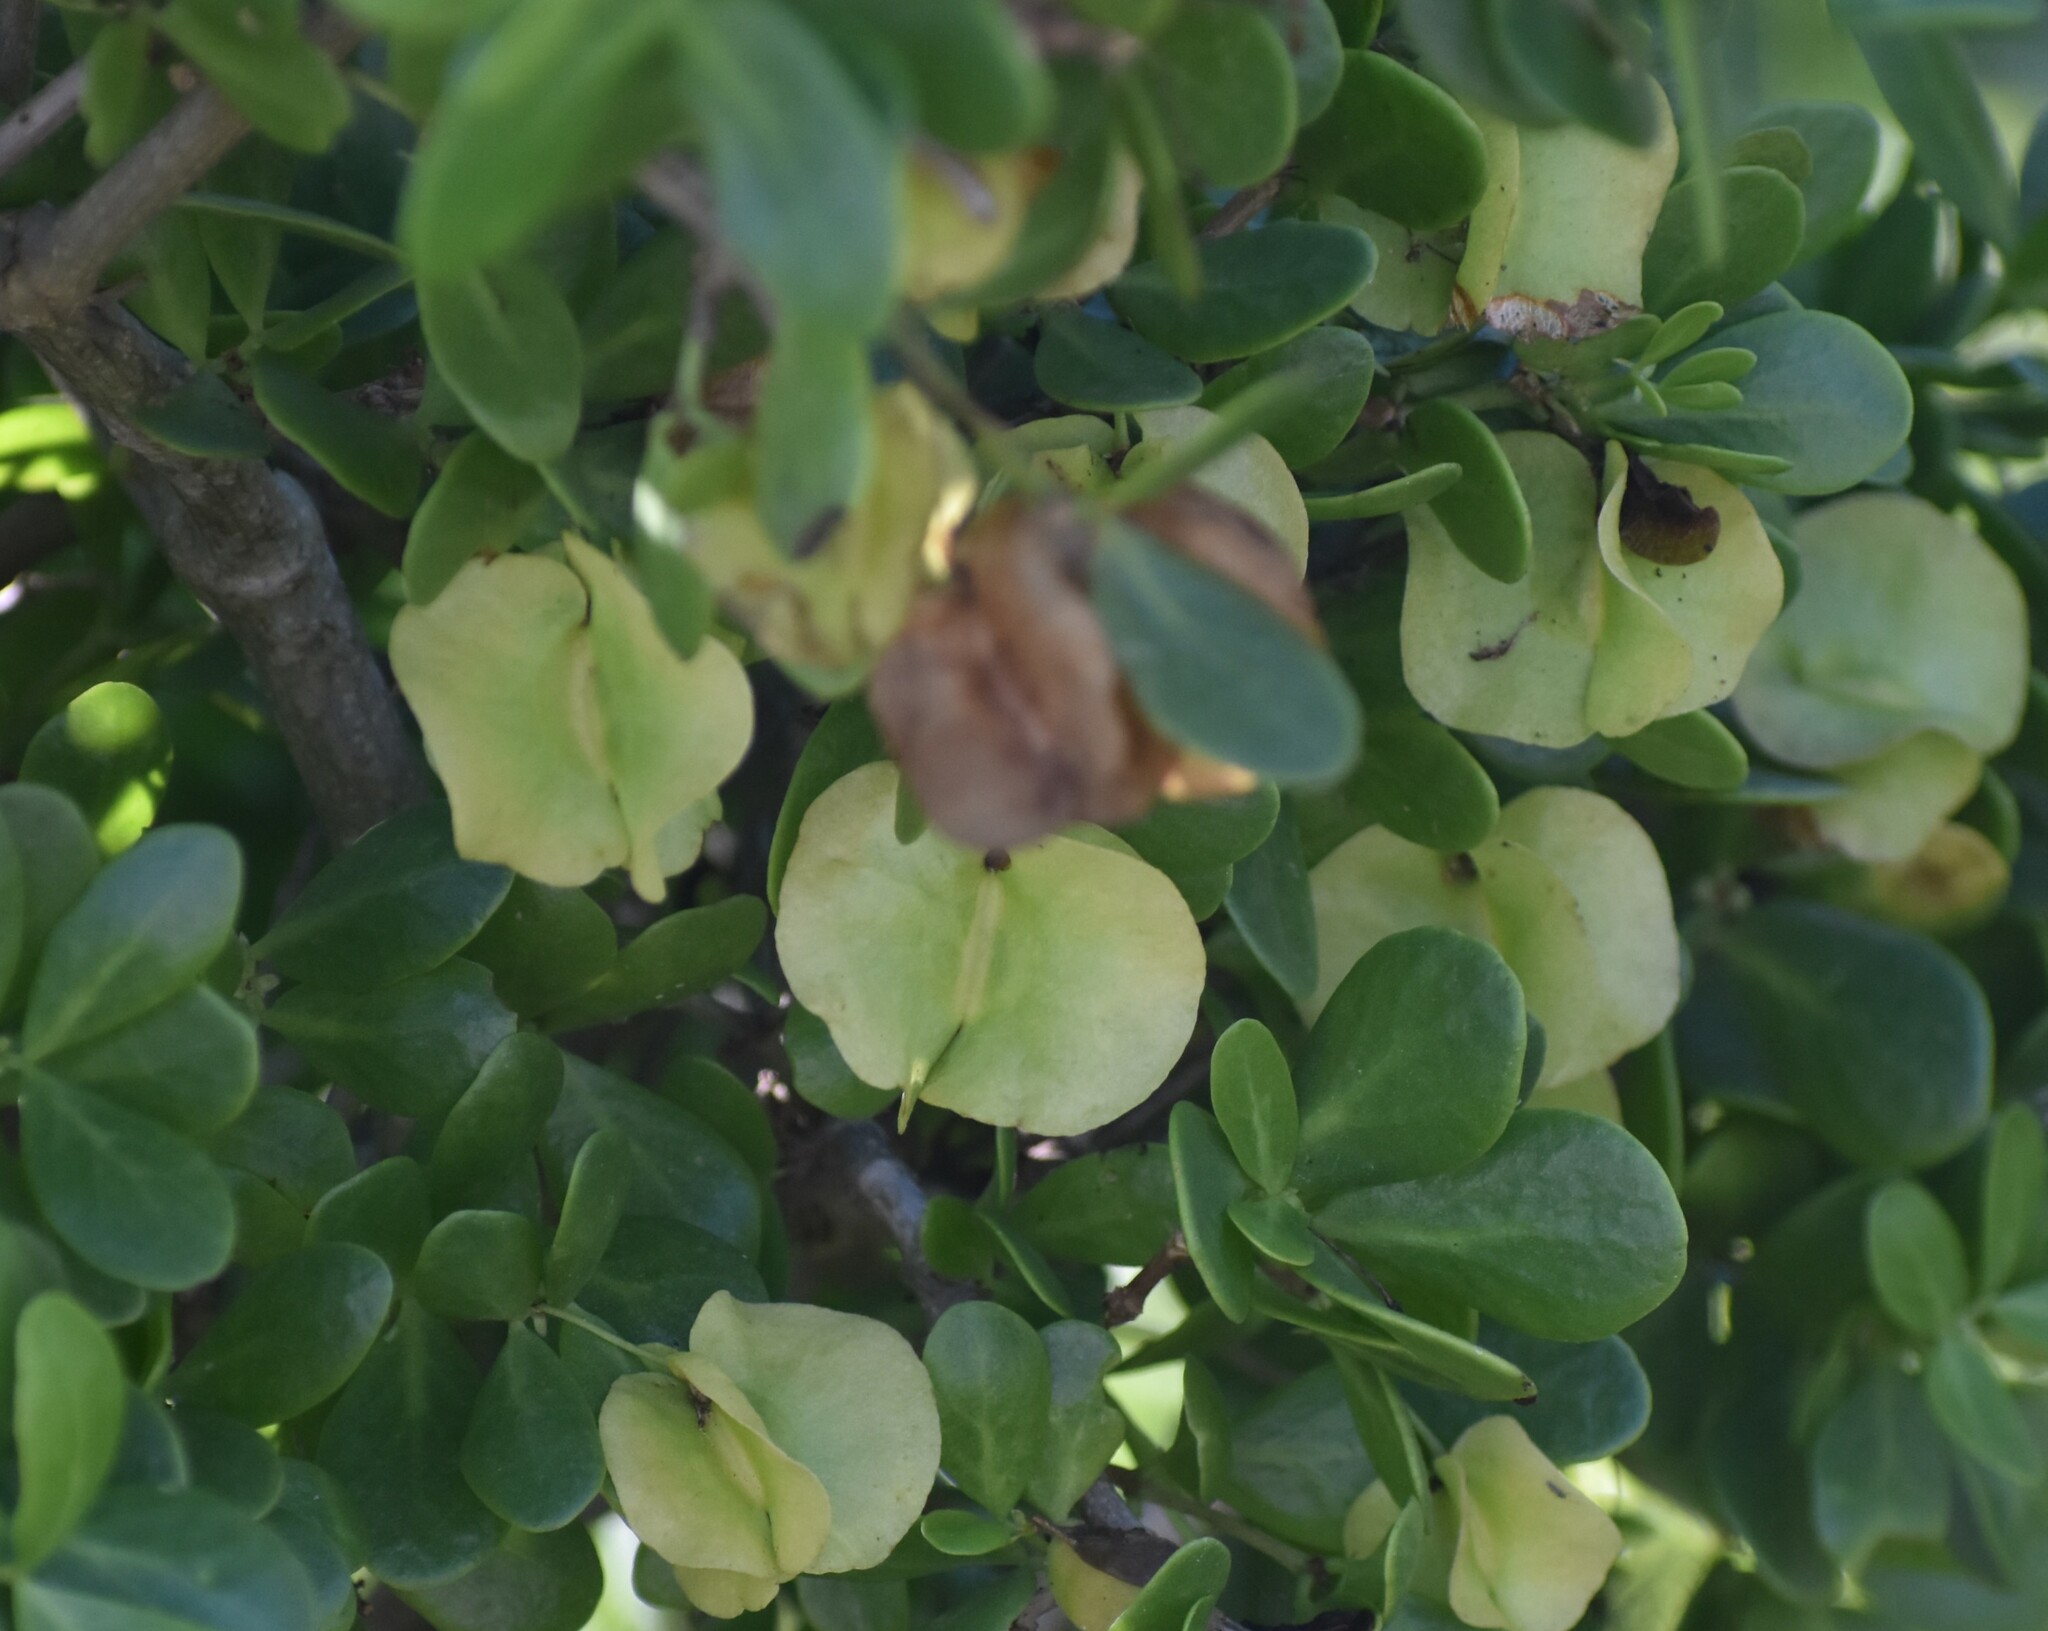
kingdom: Plantae
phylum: Tracheophyta
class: Magnoliopsida
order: Zygophyllales
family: Zygophyllaceae
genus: Roepera
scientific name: Roepera morgsana
